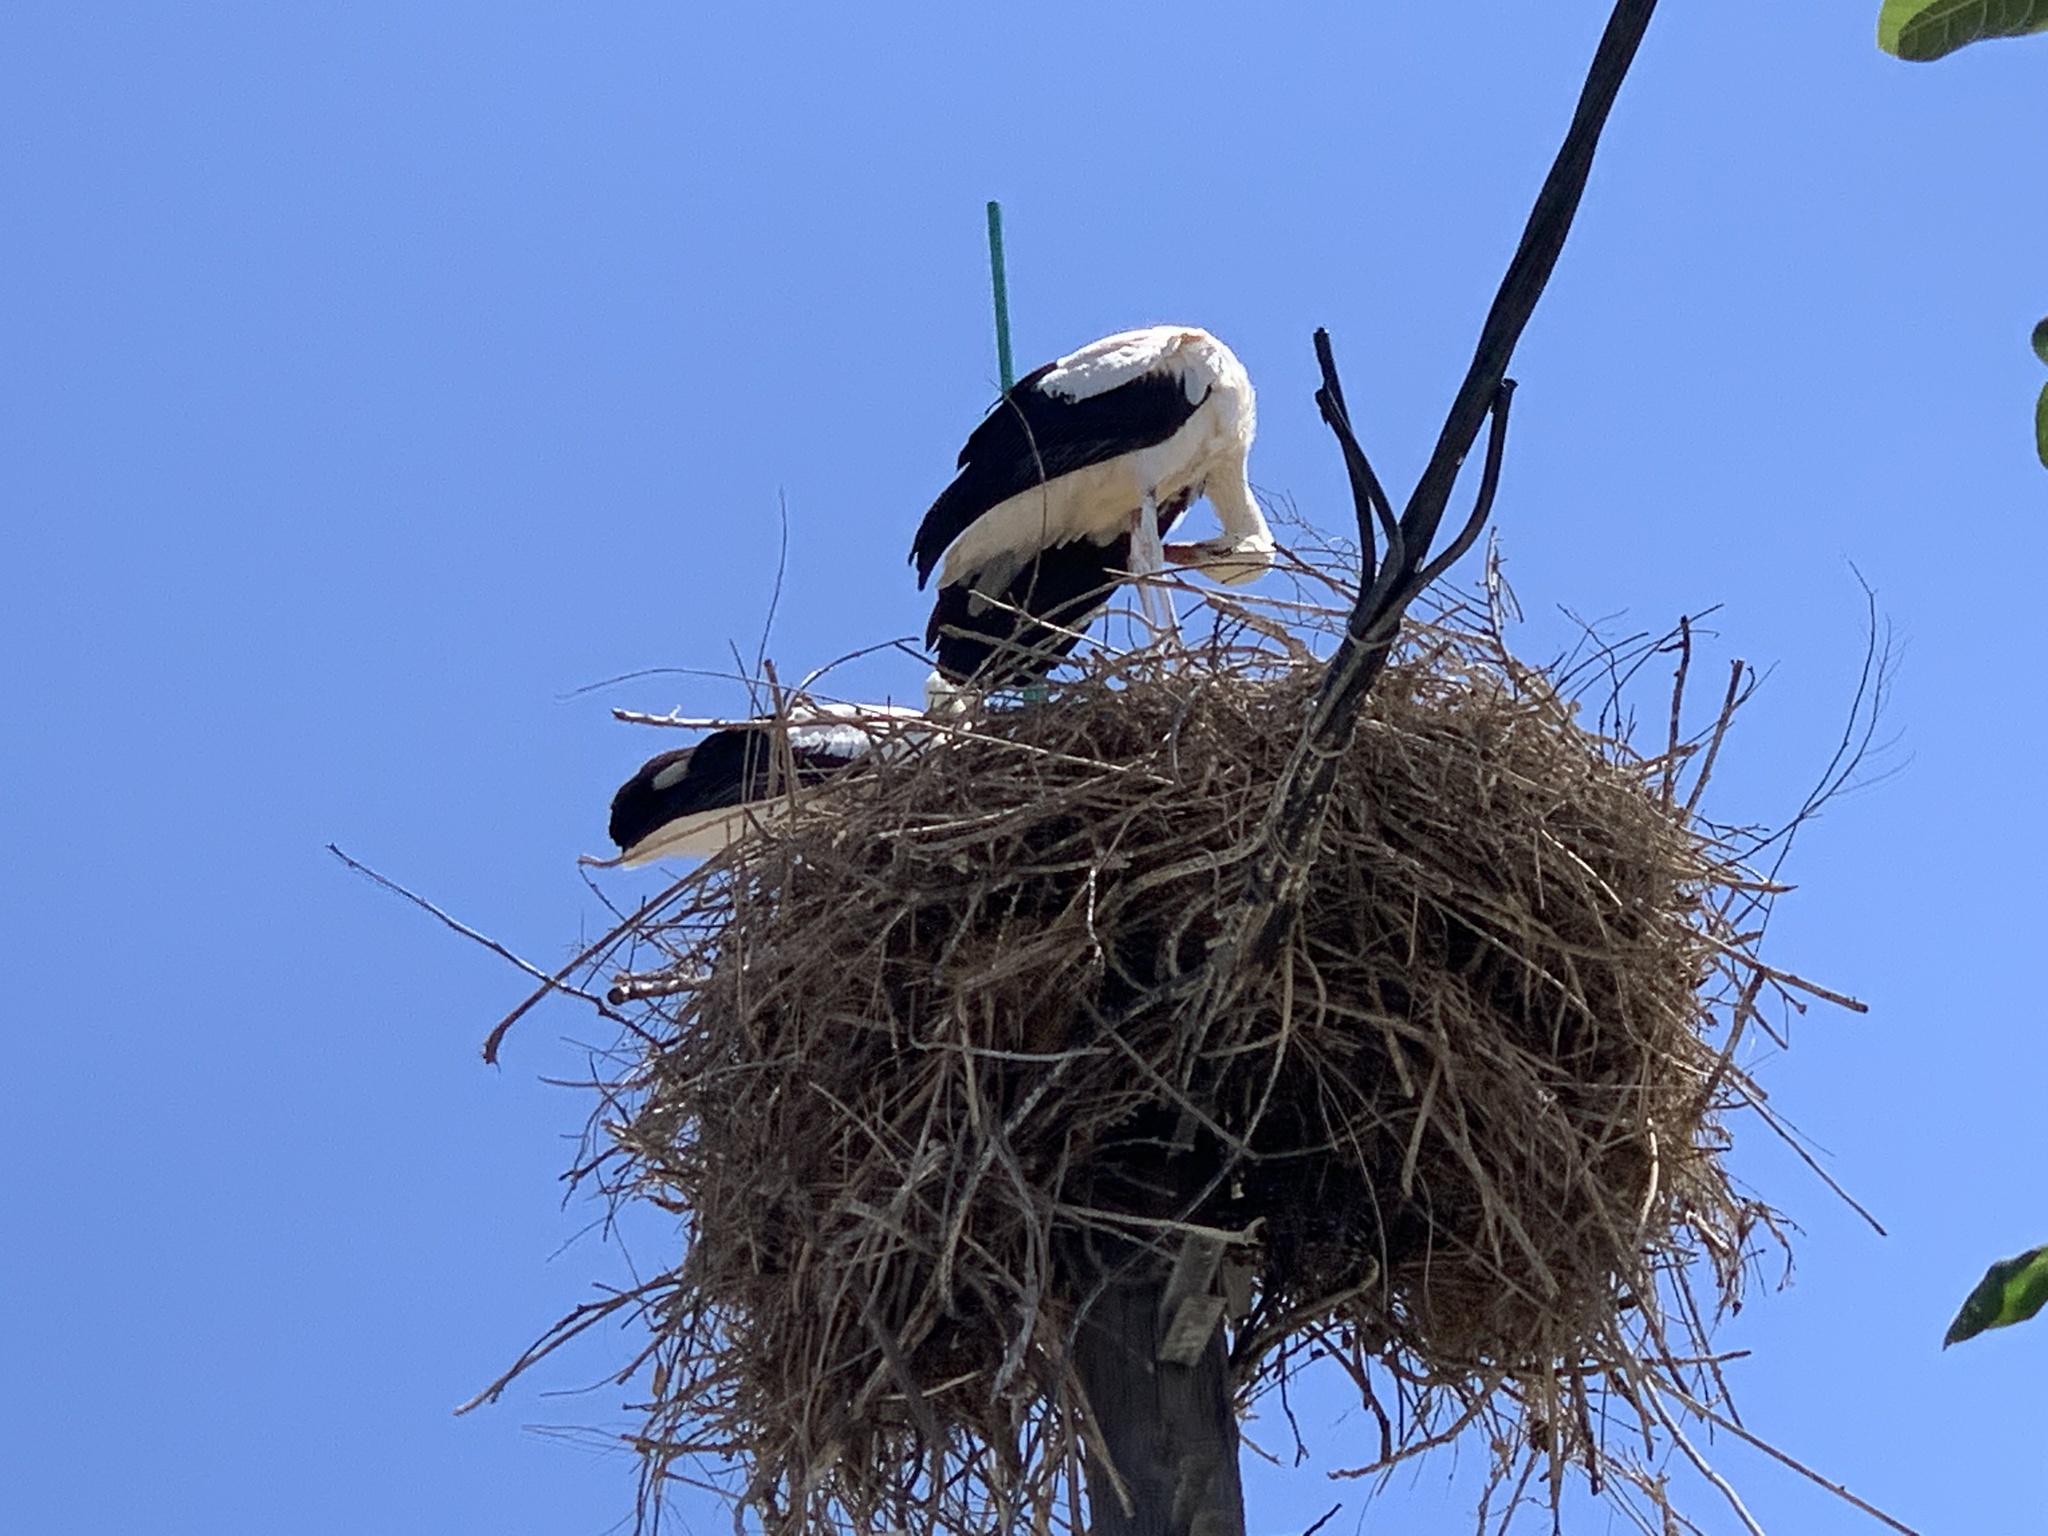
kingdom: Animalia
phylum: Chordata
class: Aves
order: Ciconiiformes
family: Ciconiidae
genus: Ciconia
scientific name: Ciconia ciconia
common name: White stork
